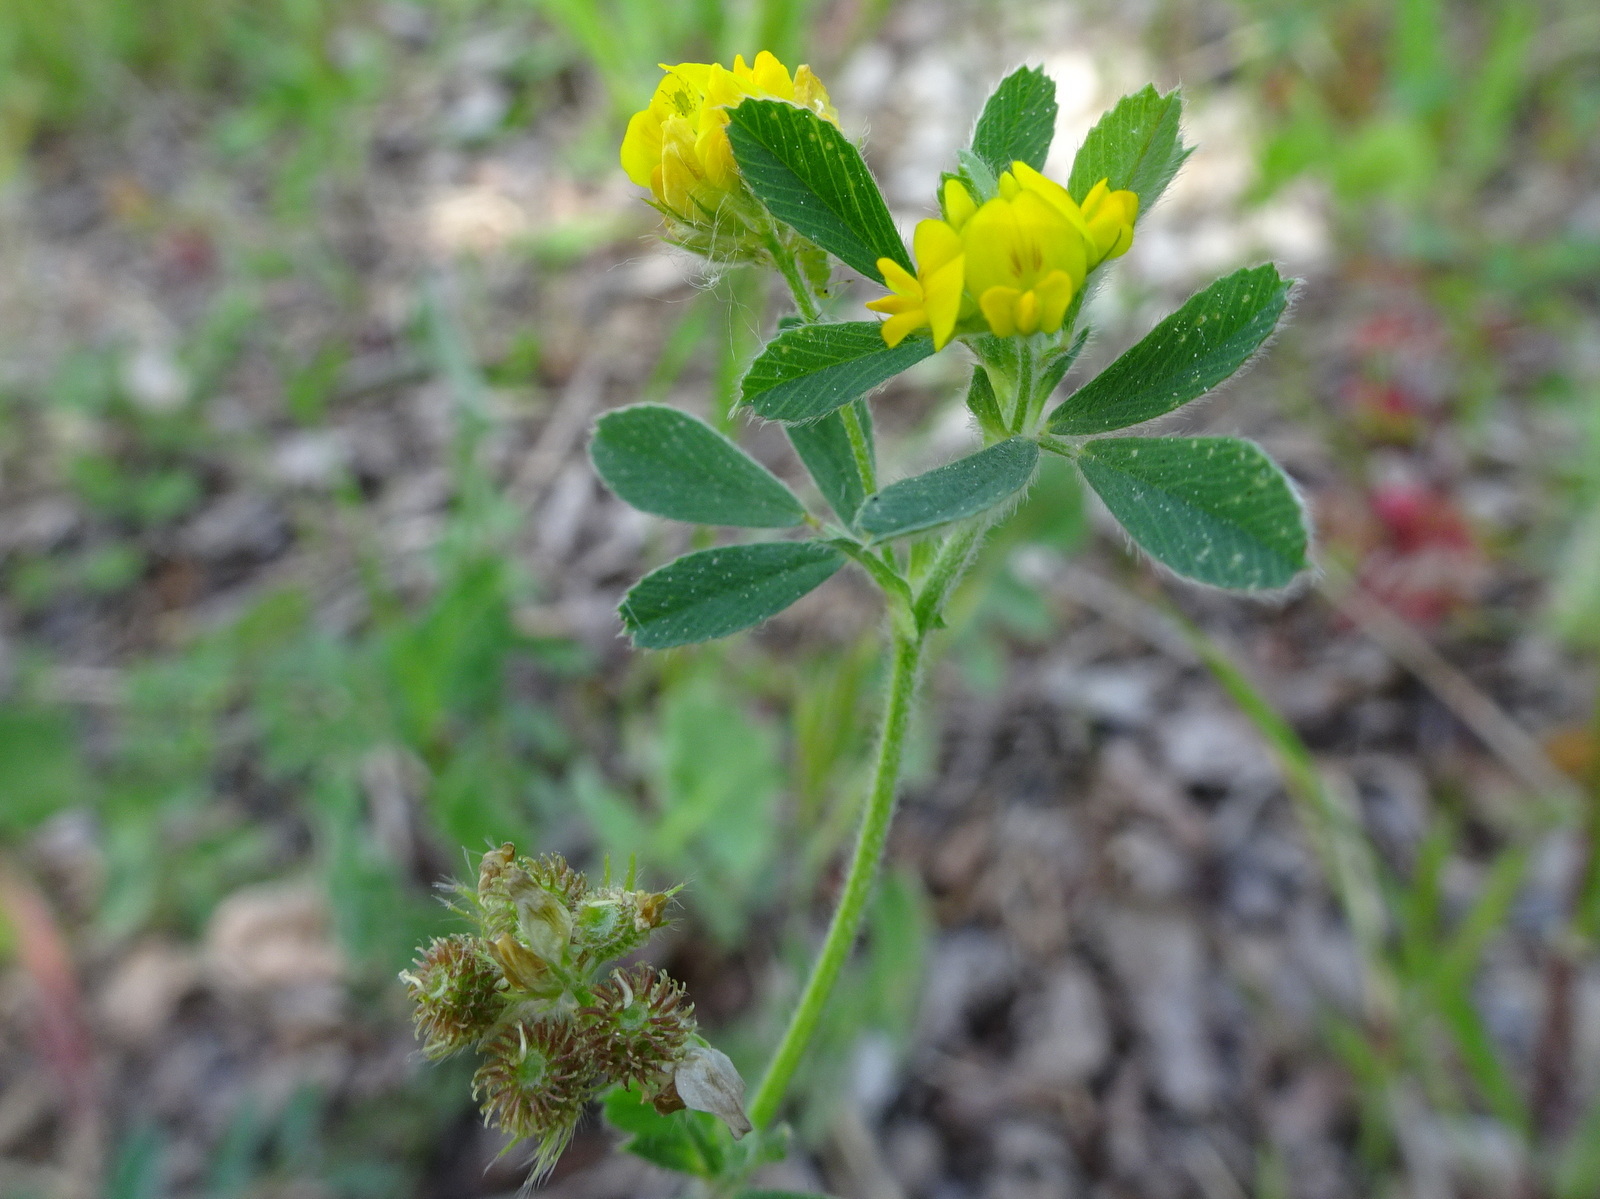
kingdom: Plantae
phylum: Tracheophyta
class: Magnoliopsida
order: Fabales
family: Fabaceae
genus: Medicago
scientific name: Medicago minima
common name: Little bur-clover
